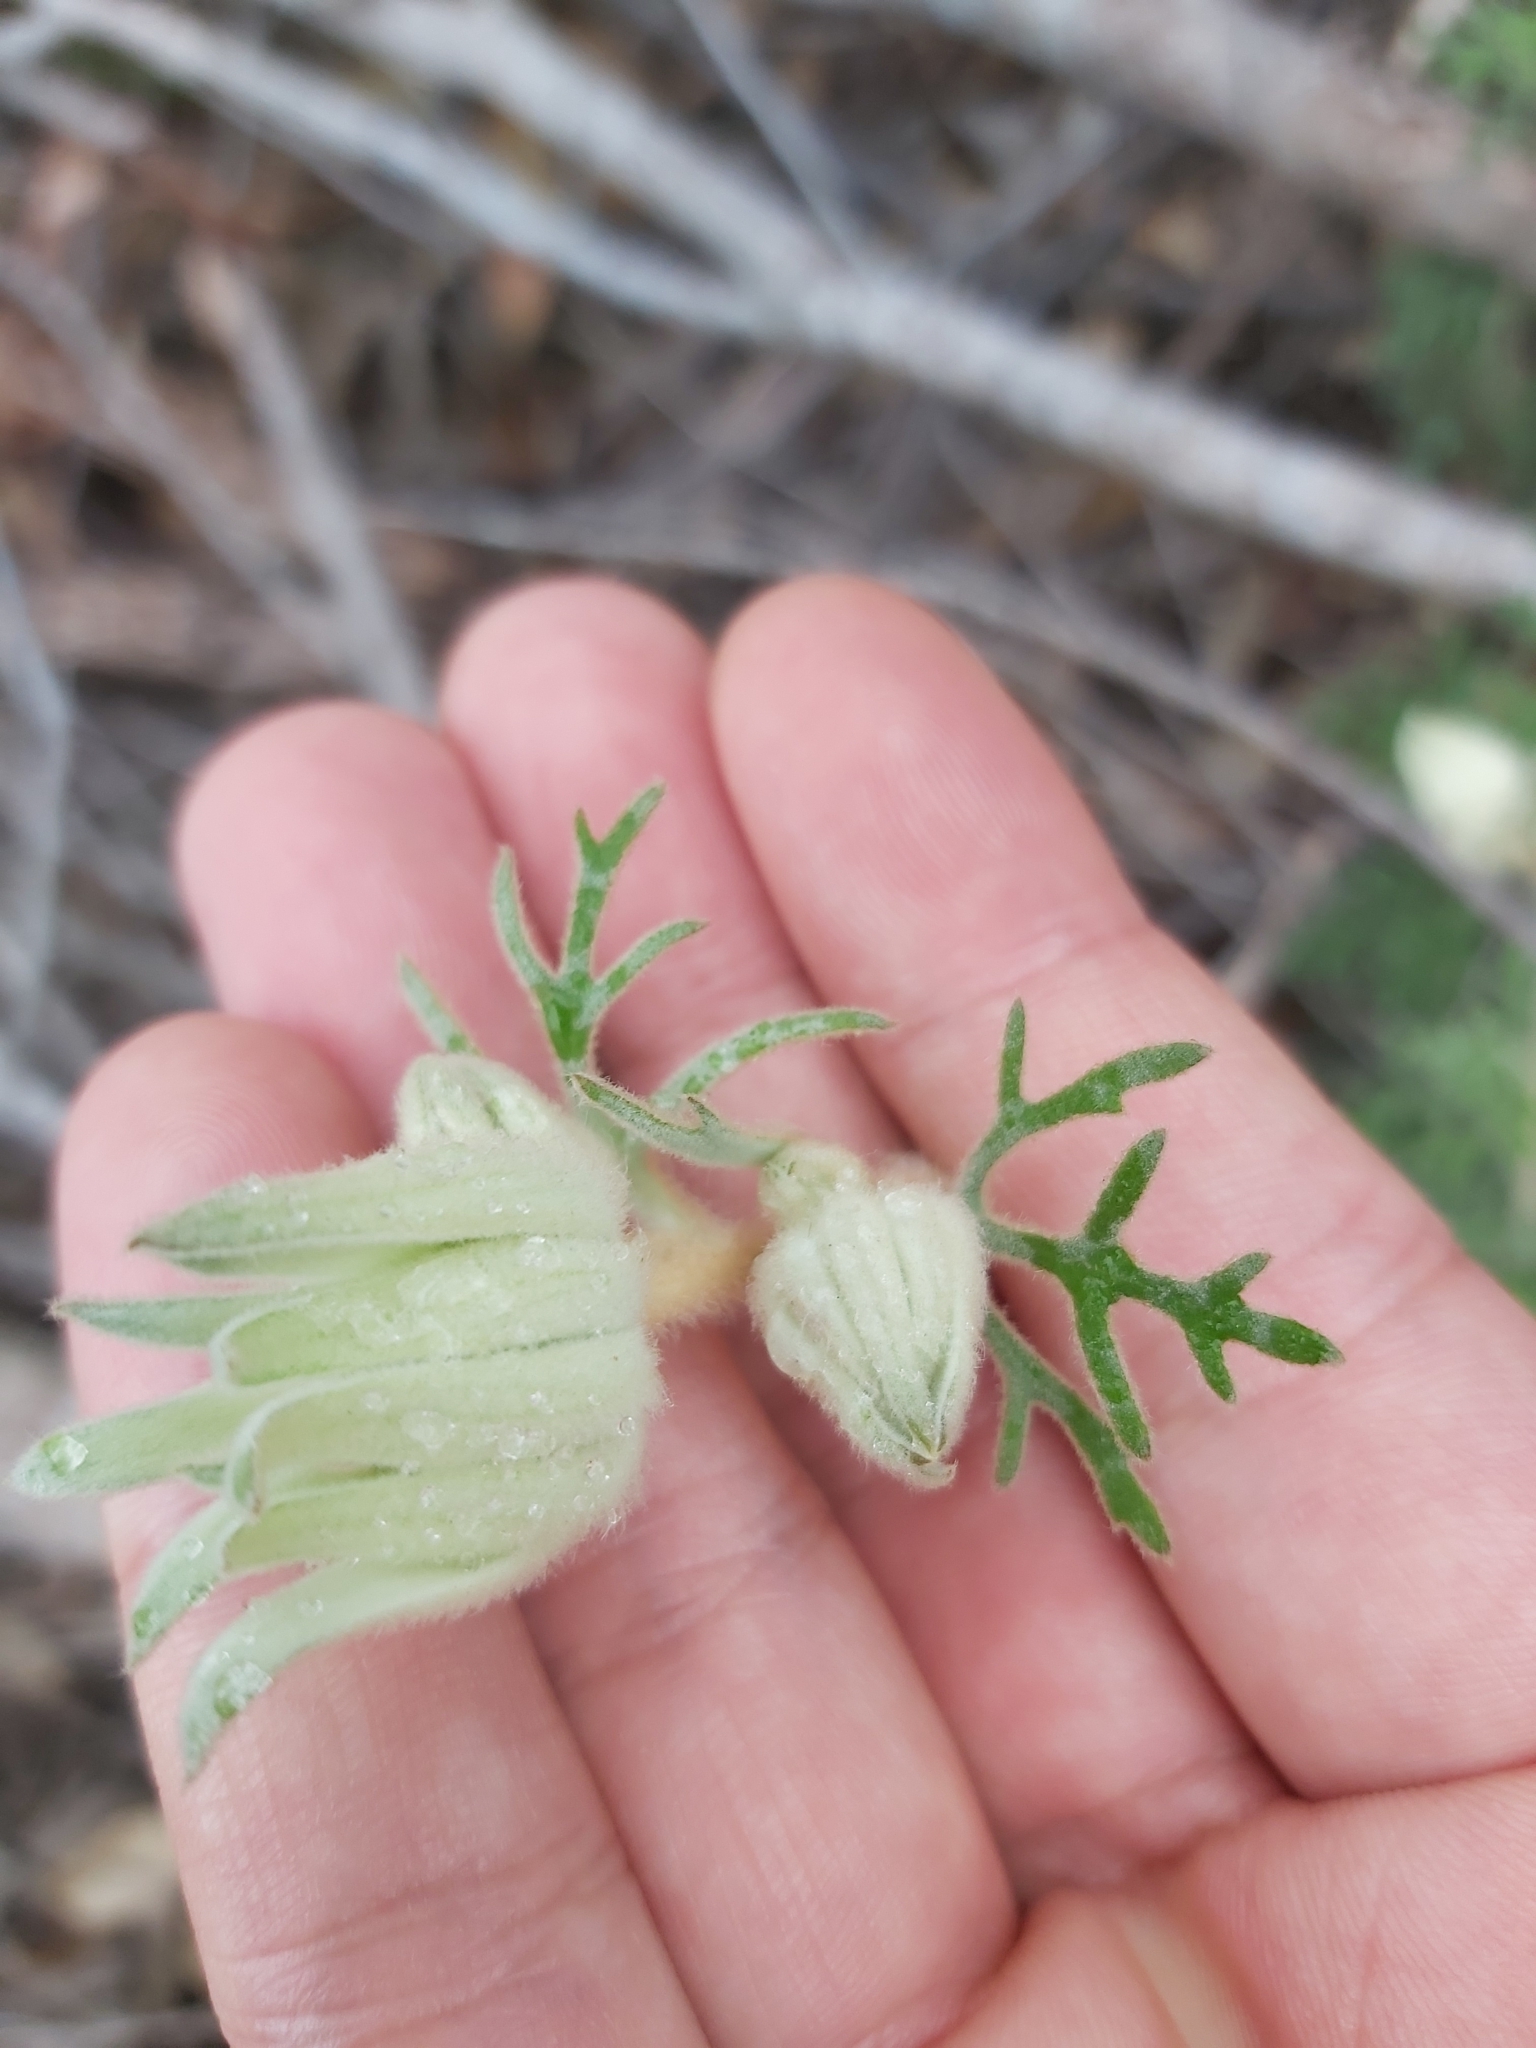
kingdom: Plantae
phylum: Tracheophyta
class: Magnoliopsida
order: Apiales
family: Apiaceae
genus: Actinotus
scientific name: Actinotus helianthi
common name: Flannel-flower
